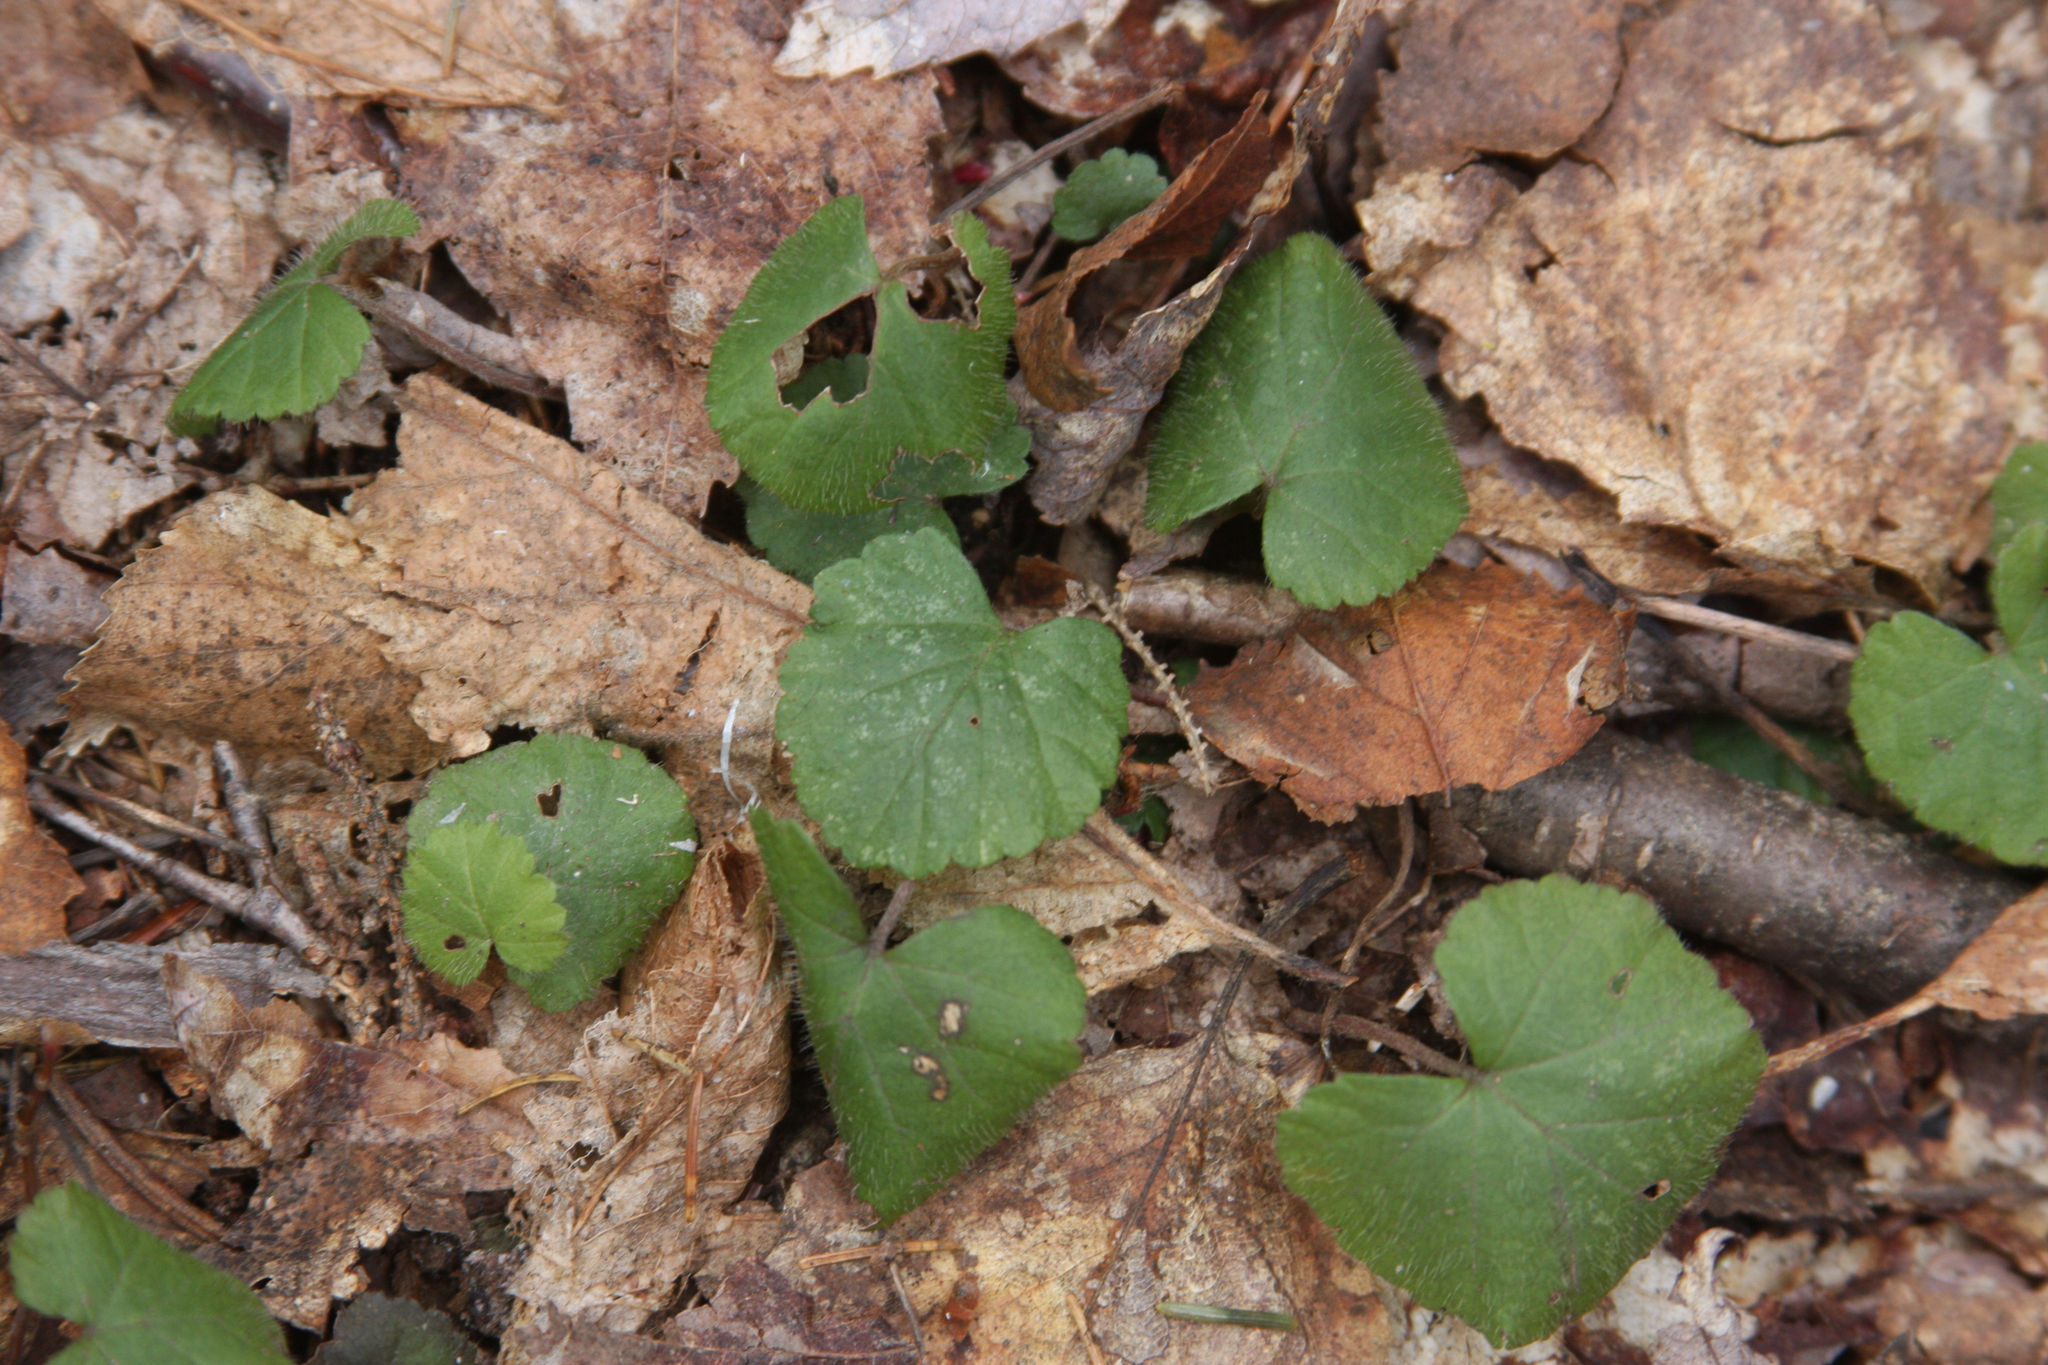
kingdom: Plantae
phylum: Tracheophyta
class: Magnoliopsida
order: Rosales
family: Rosaceae
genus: Dalibarda
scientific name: Dalibarda repens
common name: Dewdrop
